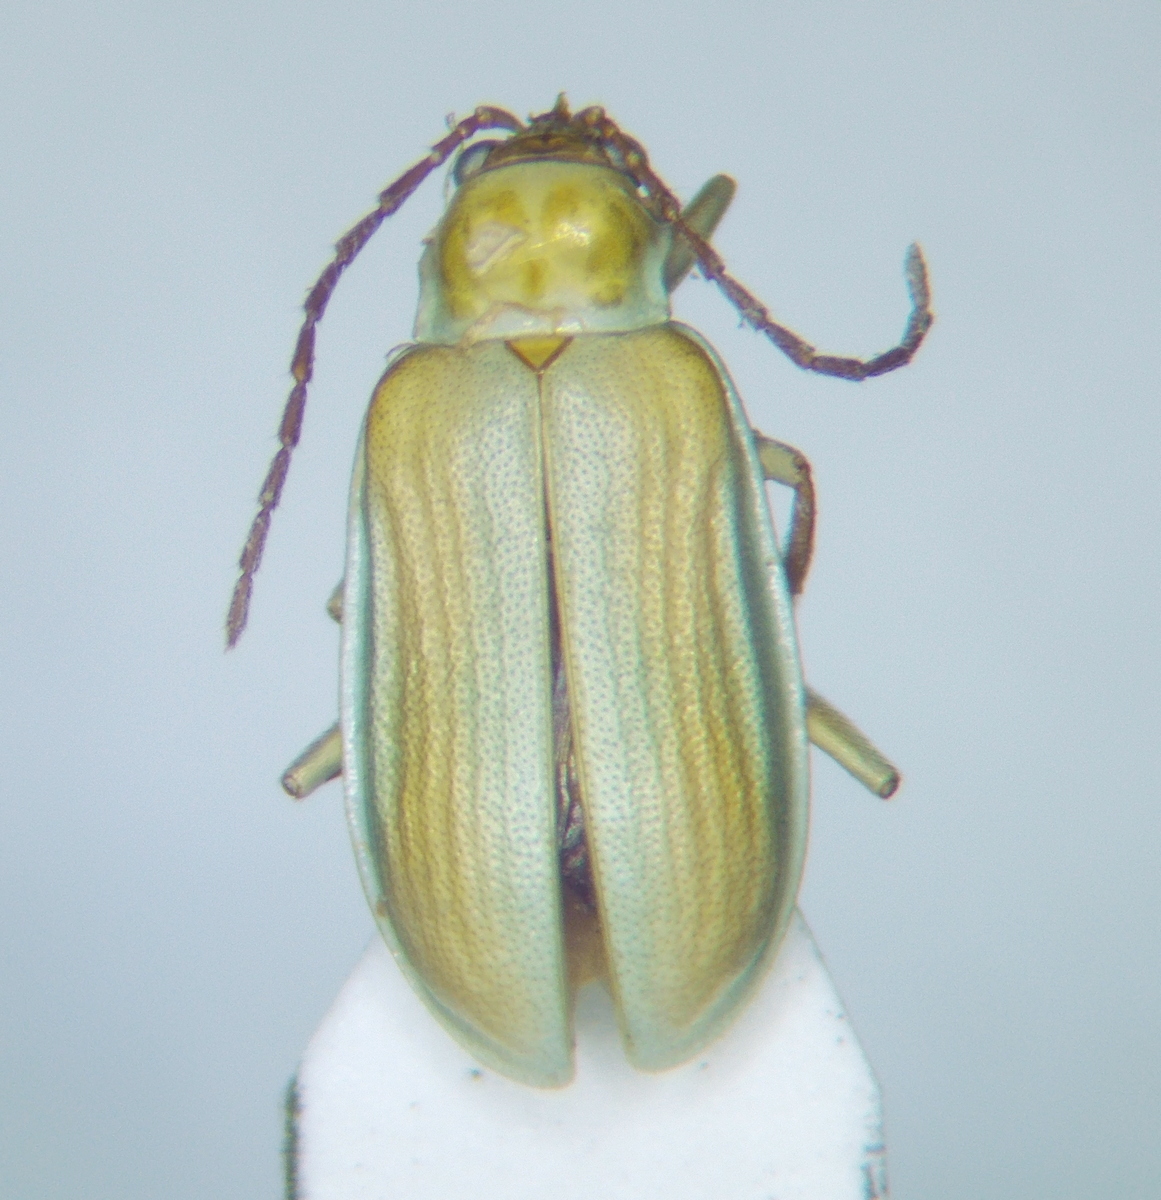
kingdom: Animalia
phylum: Arthropoda
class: Insecta
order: Coleoptera
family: Chrysomelidae
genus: Diabrotica
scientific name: Diabrotica virgifera
